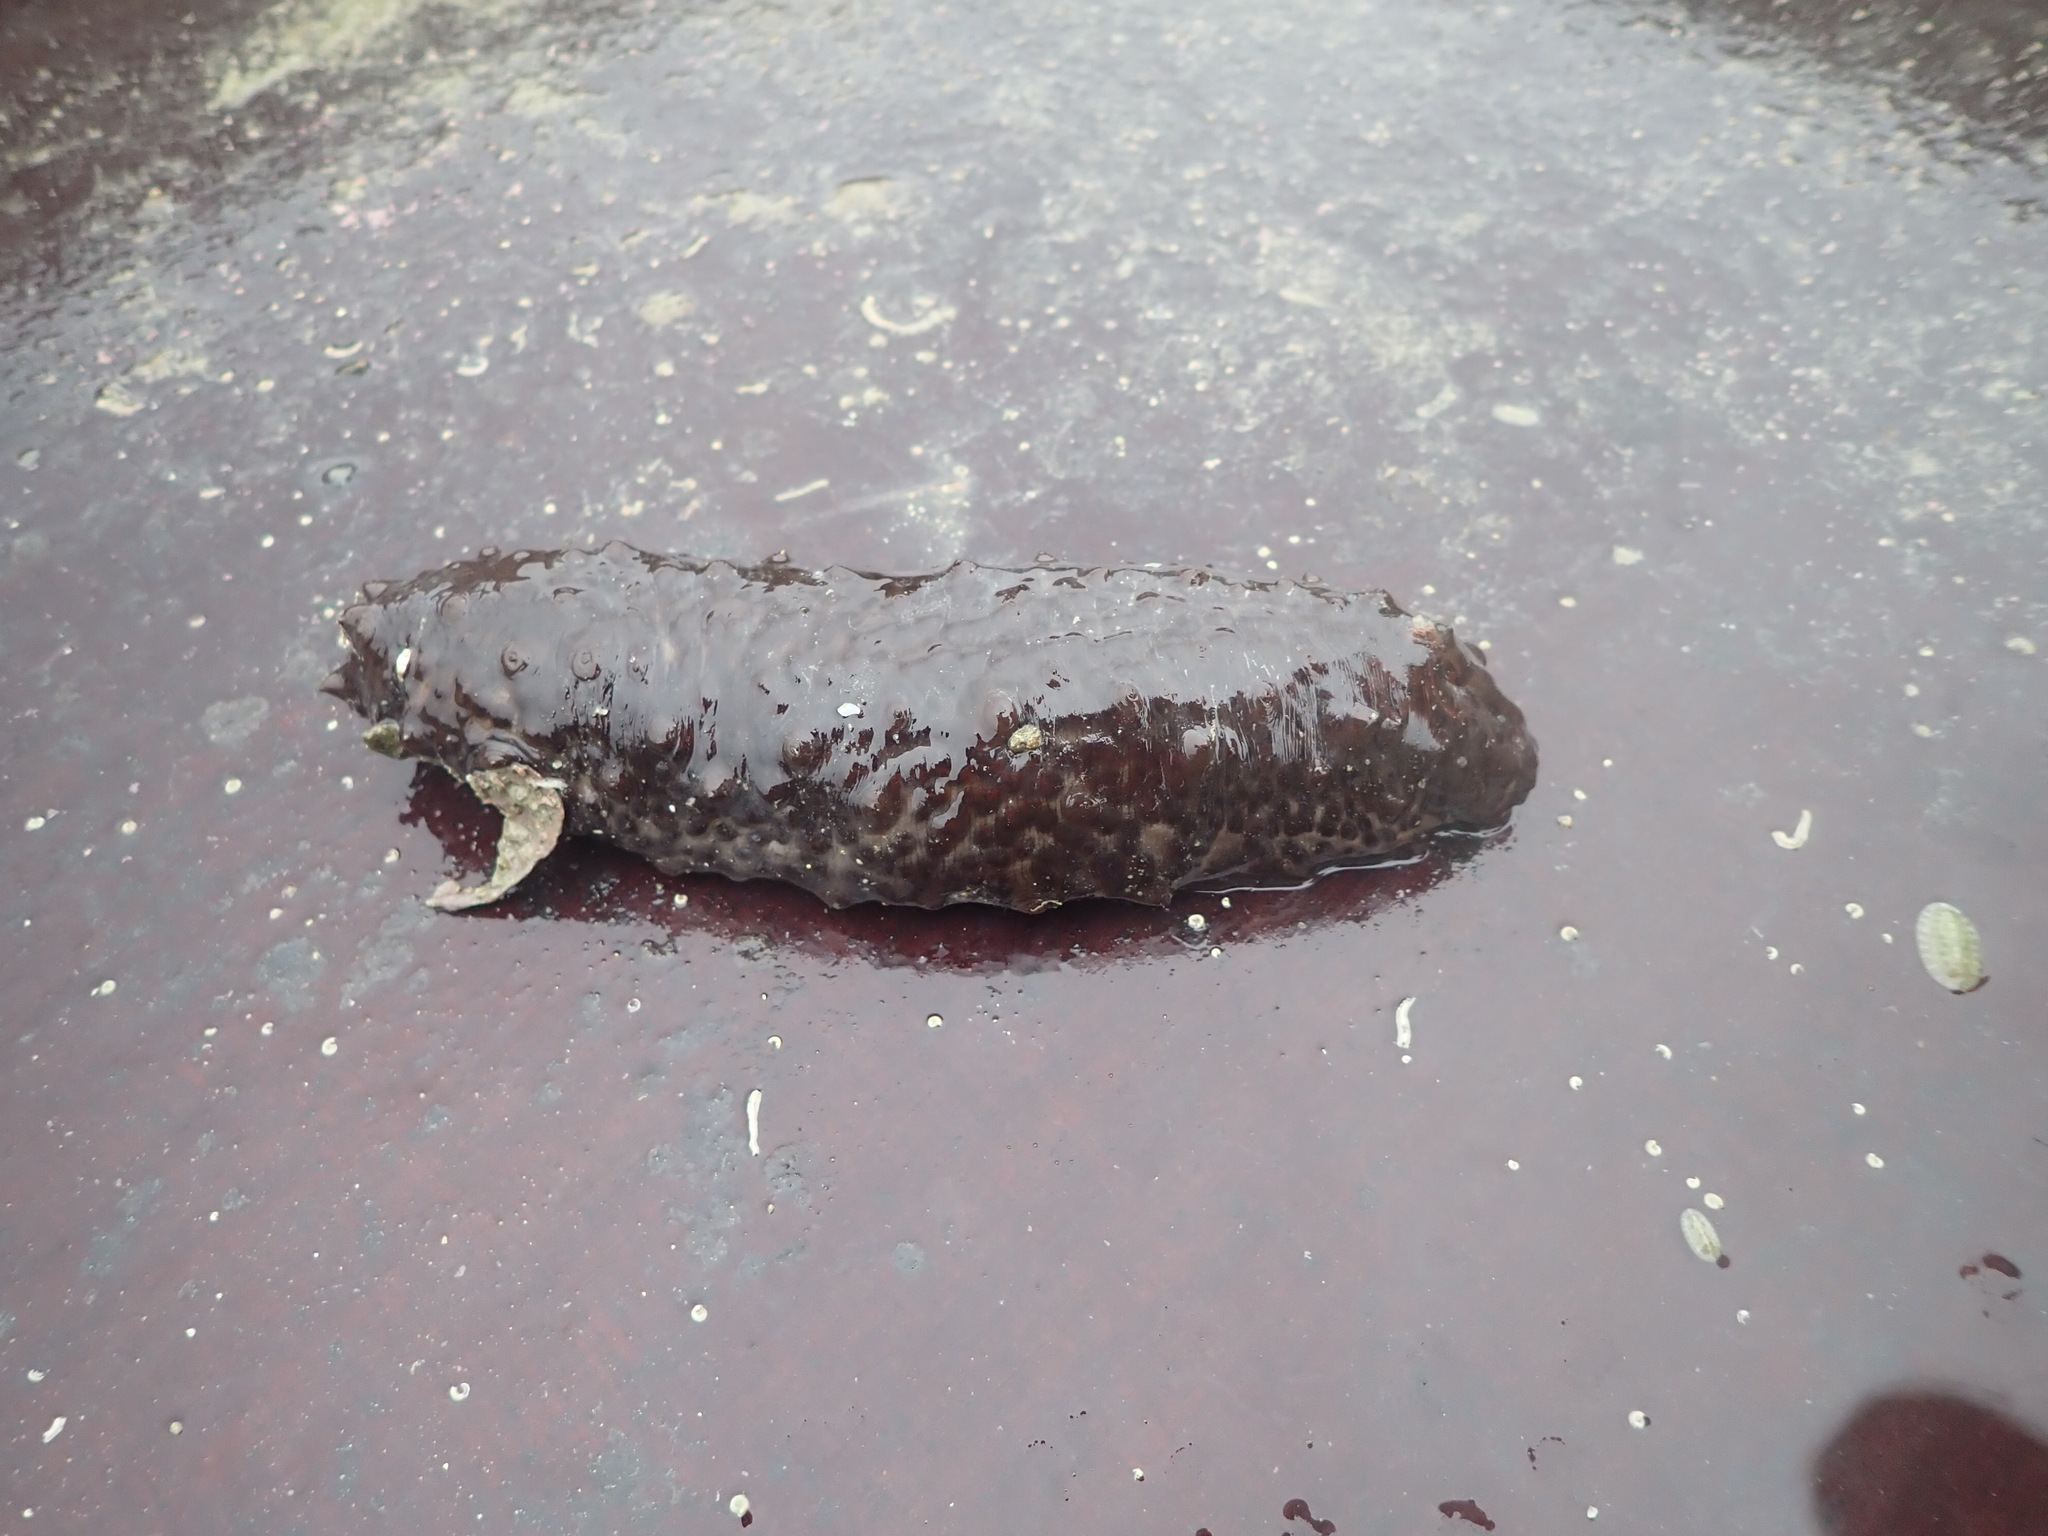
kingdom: Animalia
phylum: Echinodermata
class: Holothuroidea
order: Synallactida
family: Stichopodidae
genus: Australostichopus
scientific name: Australostichopus mollis
